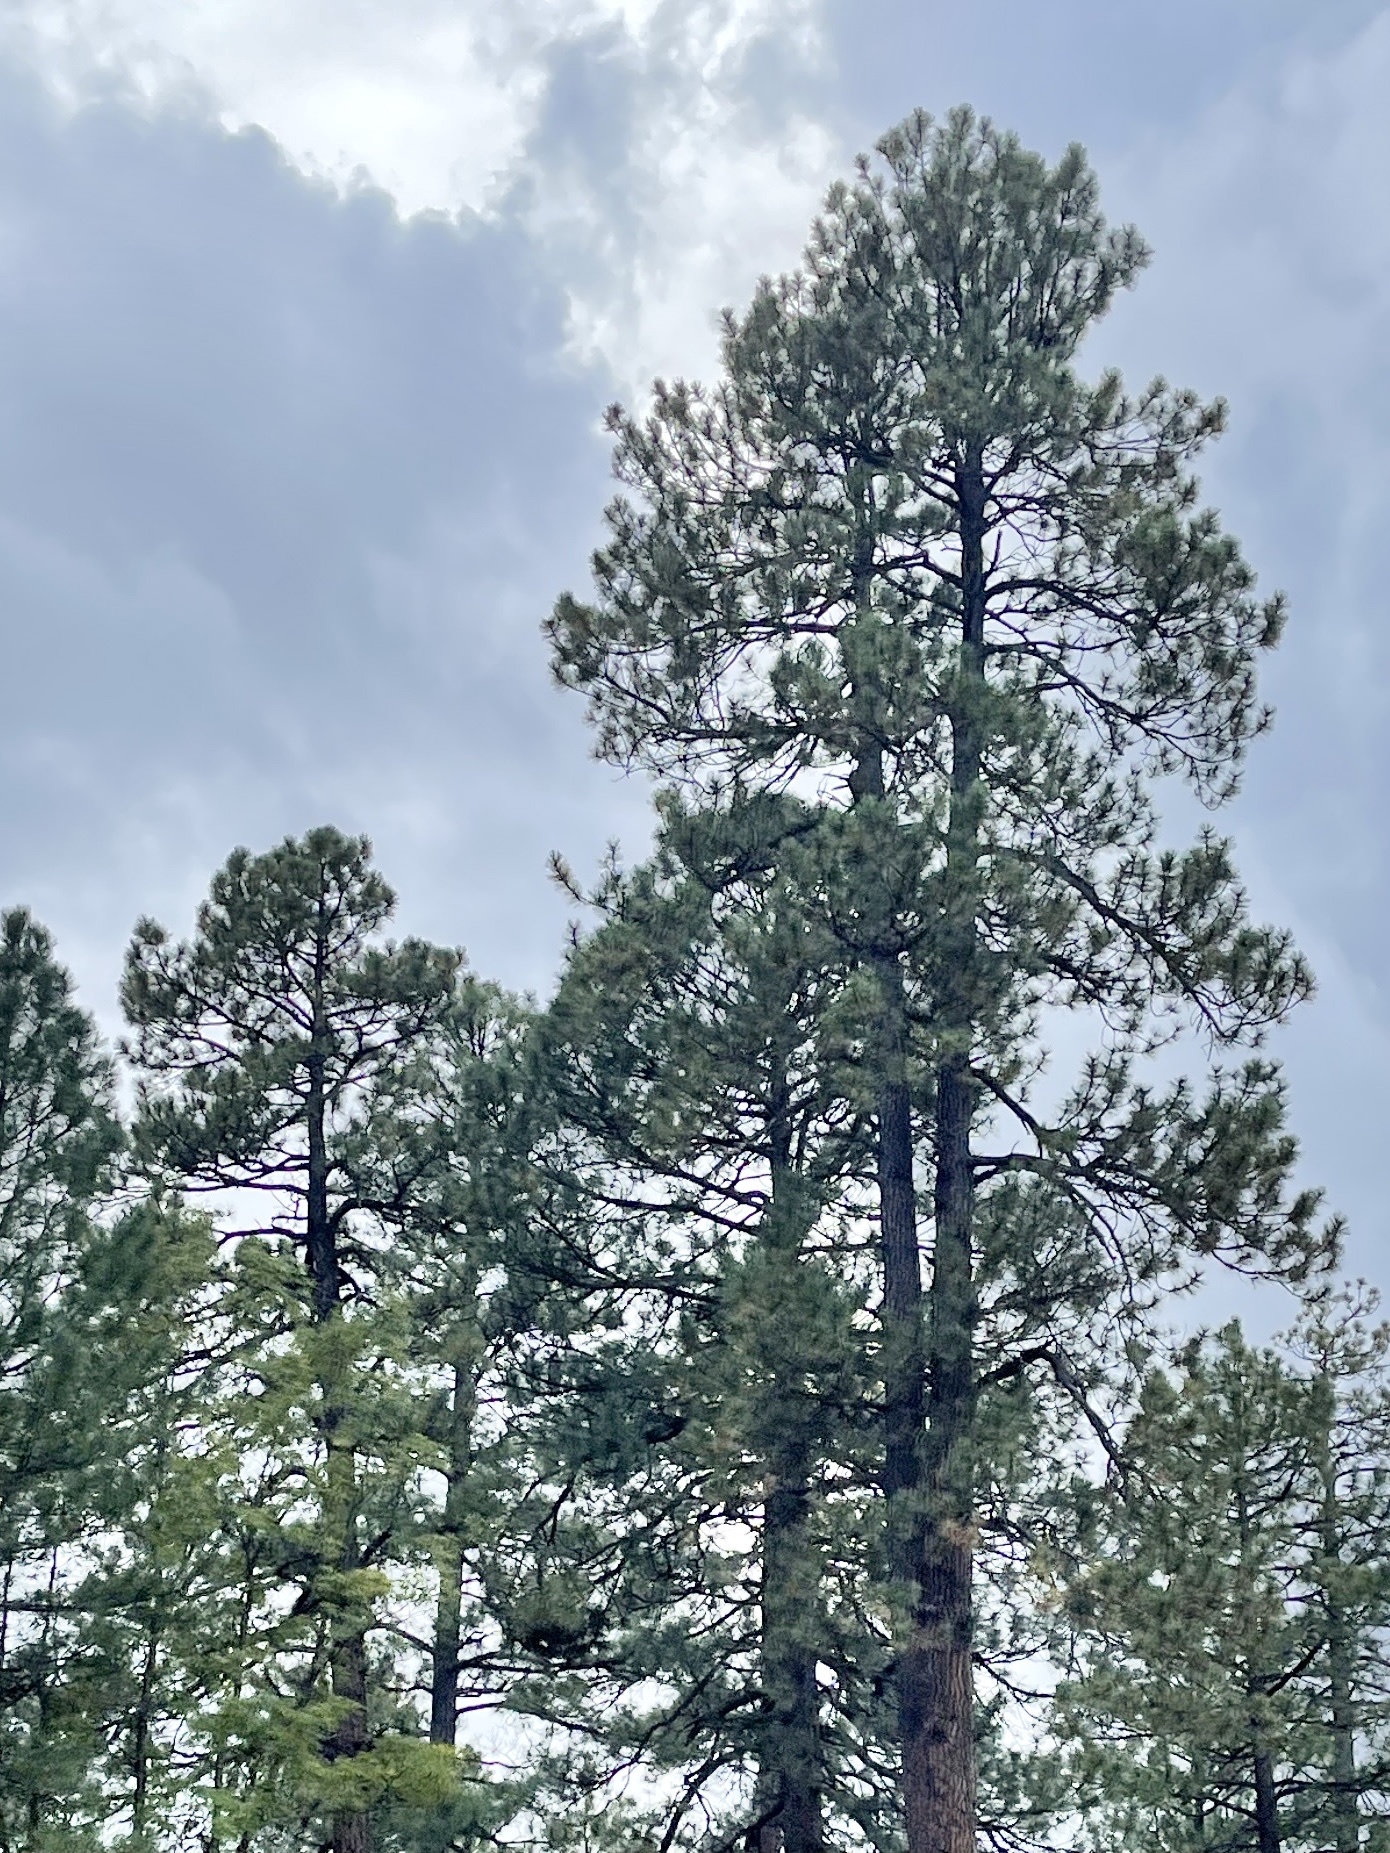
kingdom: Plantae
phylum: Tracheophyta
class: Pinopsida
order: Pinales
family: Pinaceae
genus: Pinus
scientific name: Pinus ponderosa
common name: Western yellow-pine
